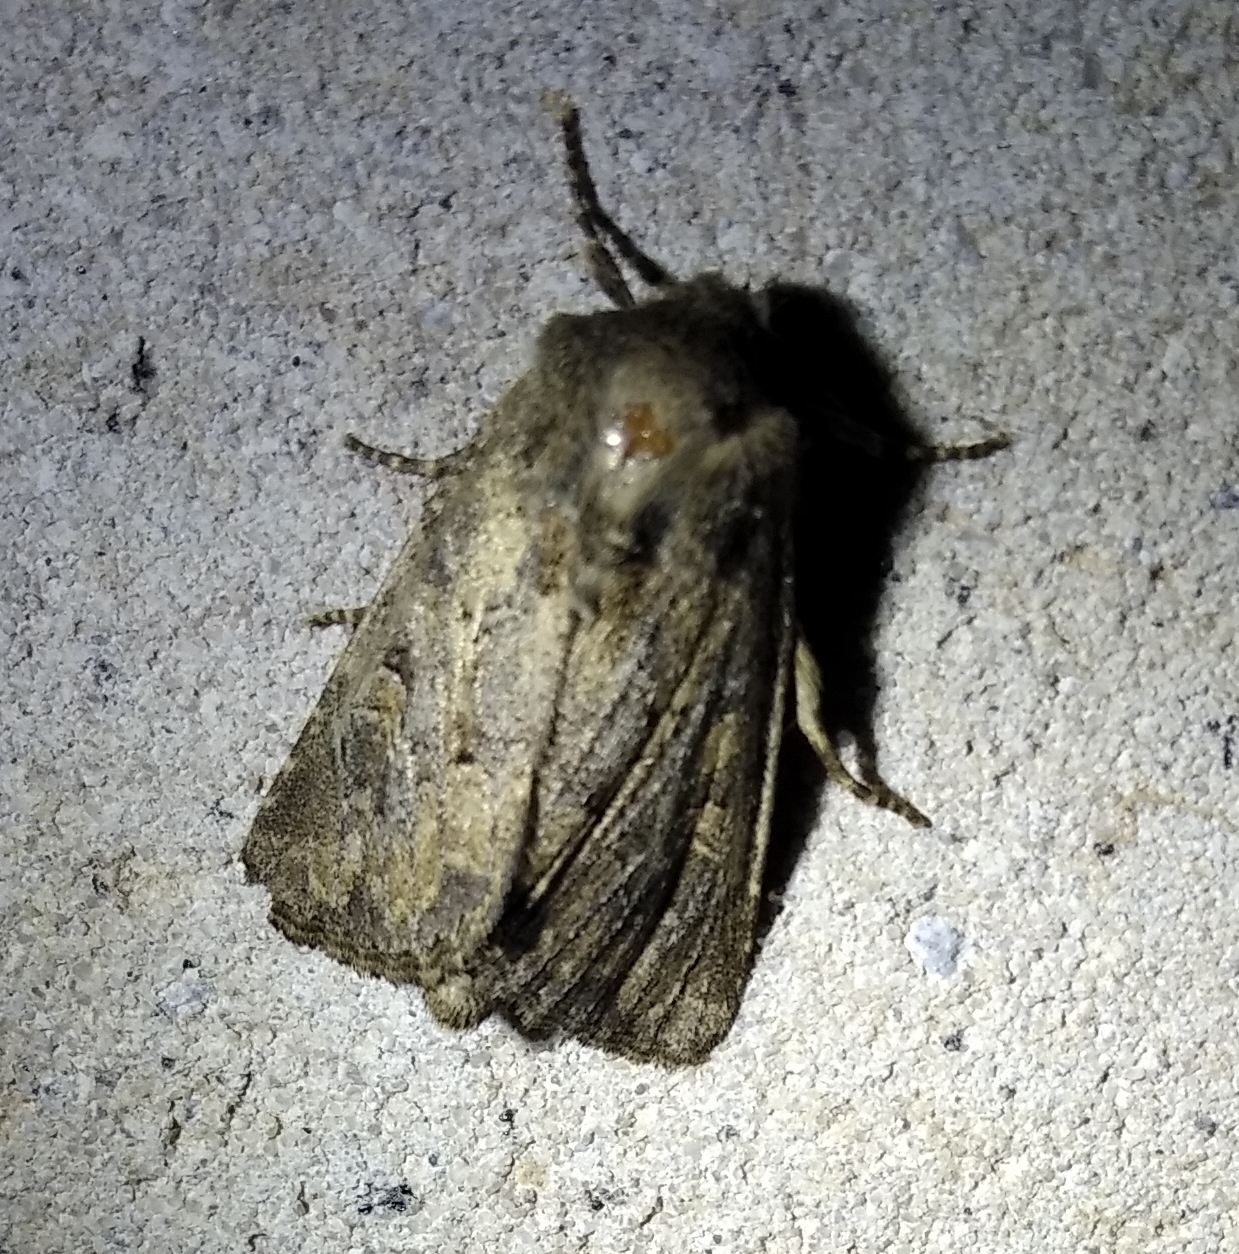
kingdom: Animalia
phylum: Arthropoda
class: Insecta
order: Lepidoptera
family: Noctuidae
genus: Luperina
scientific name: Luperina testacea
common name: Flounced rustic
